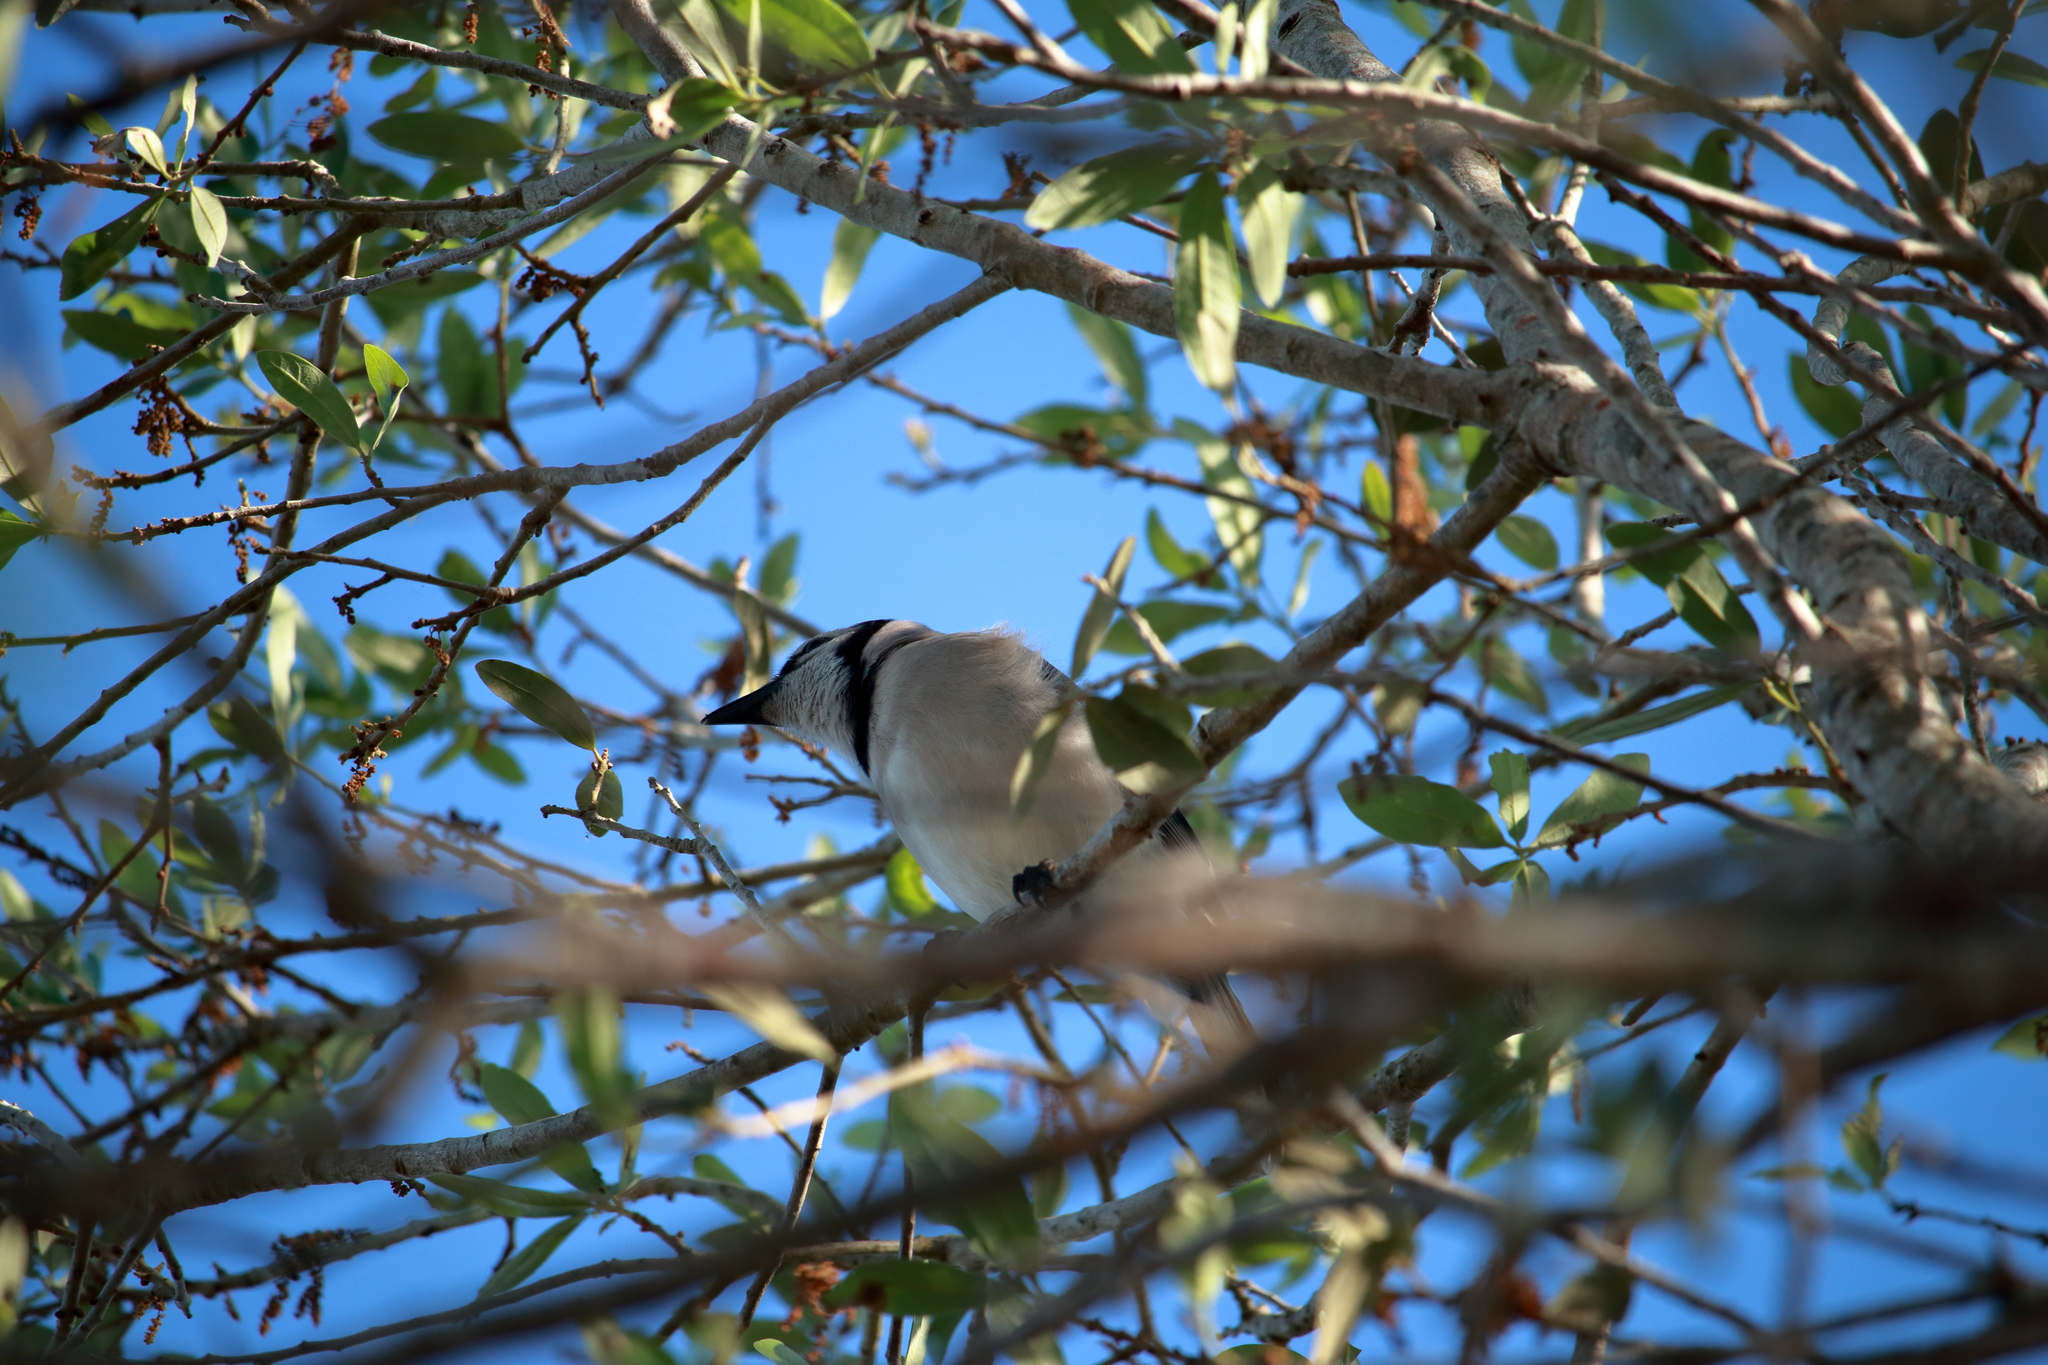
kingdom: Animalia
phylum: Chordata
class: Aves
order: Passeriformes
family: Corvidae
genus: Cyanocitta
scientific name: Cyanocitta cristata
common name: Blue jay
